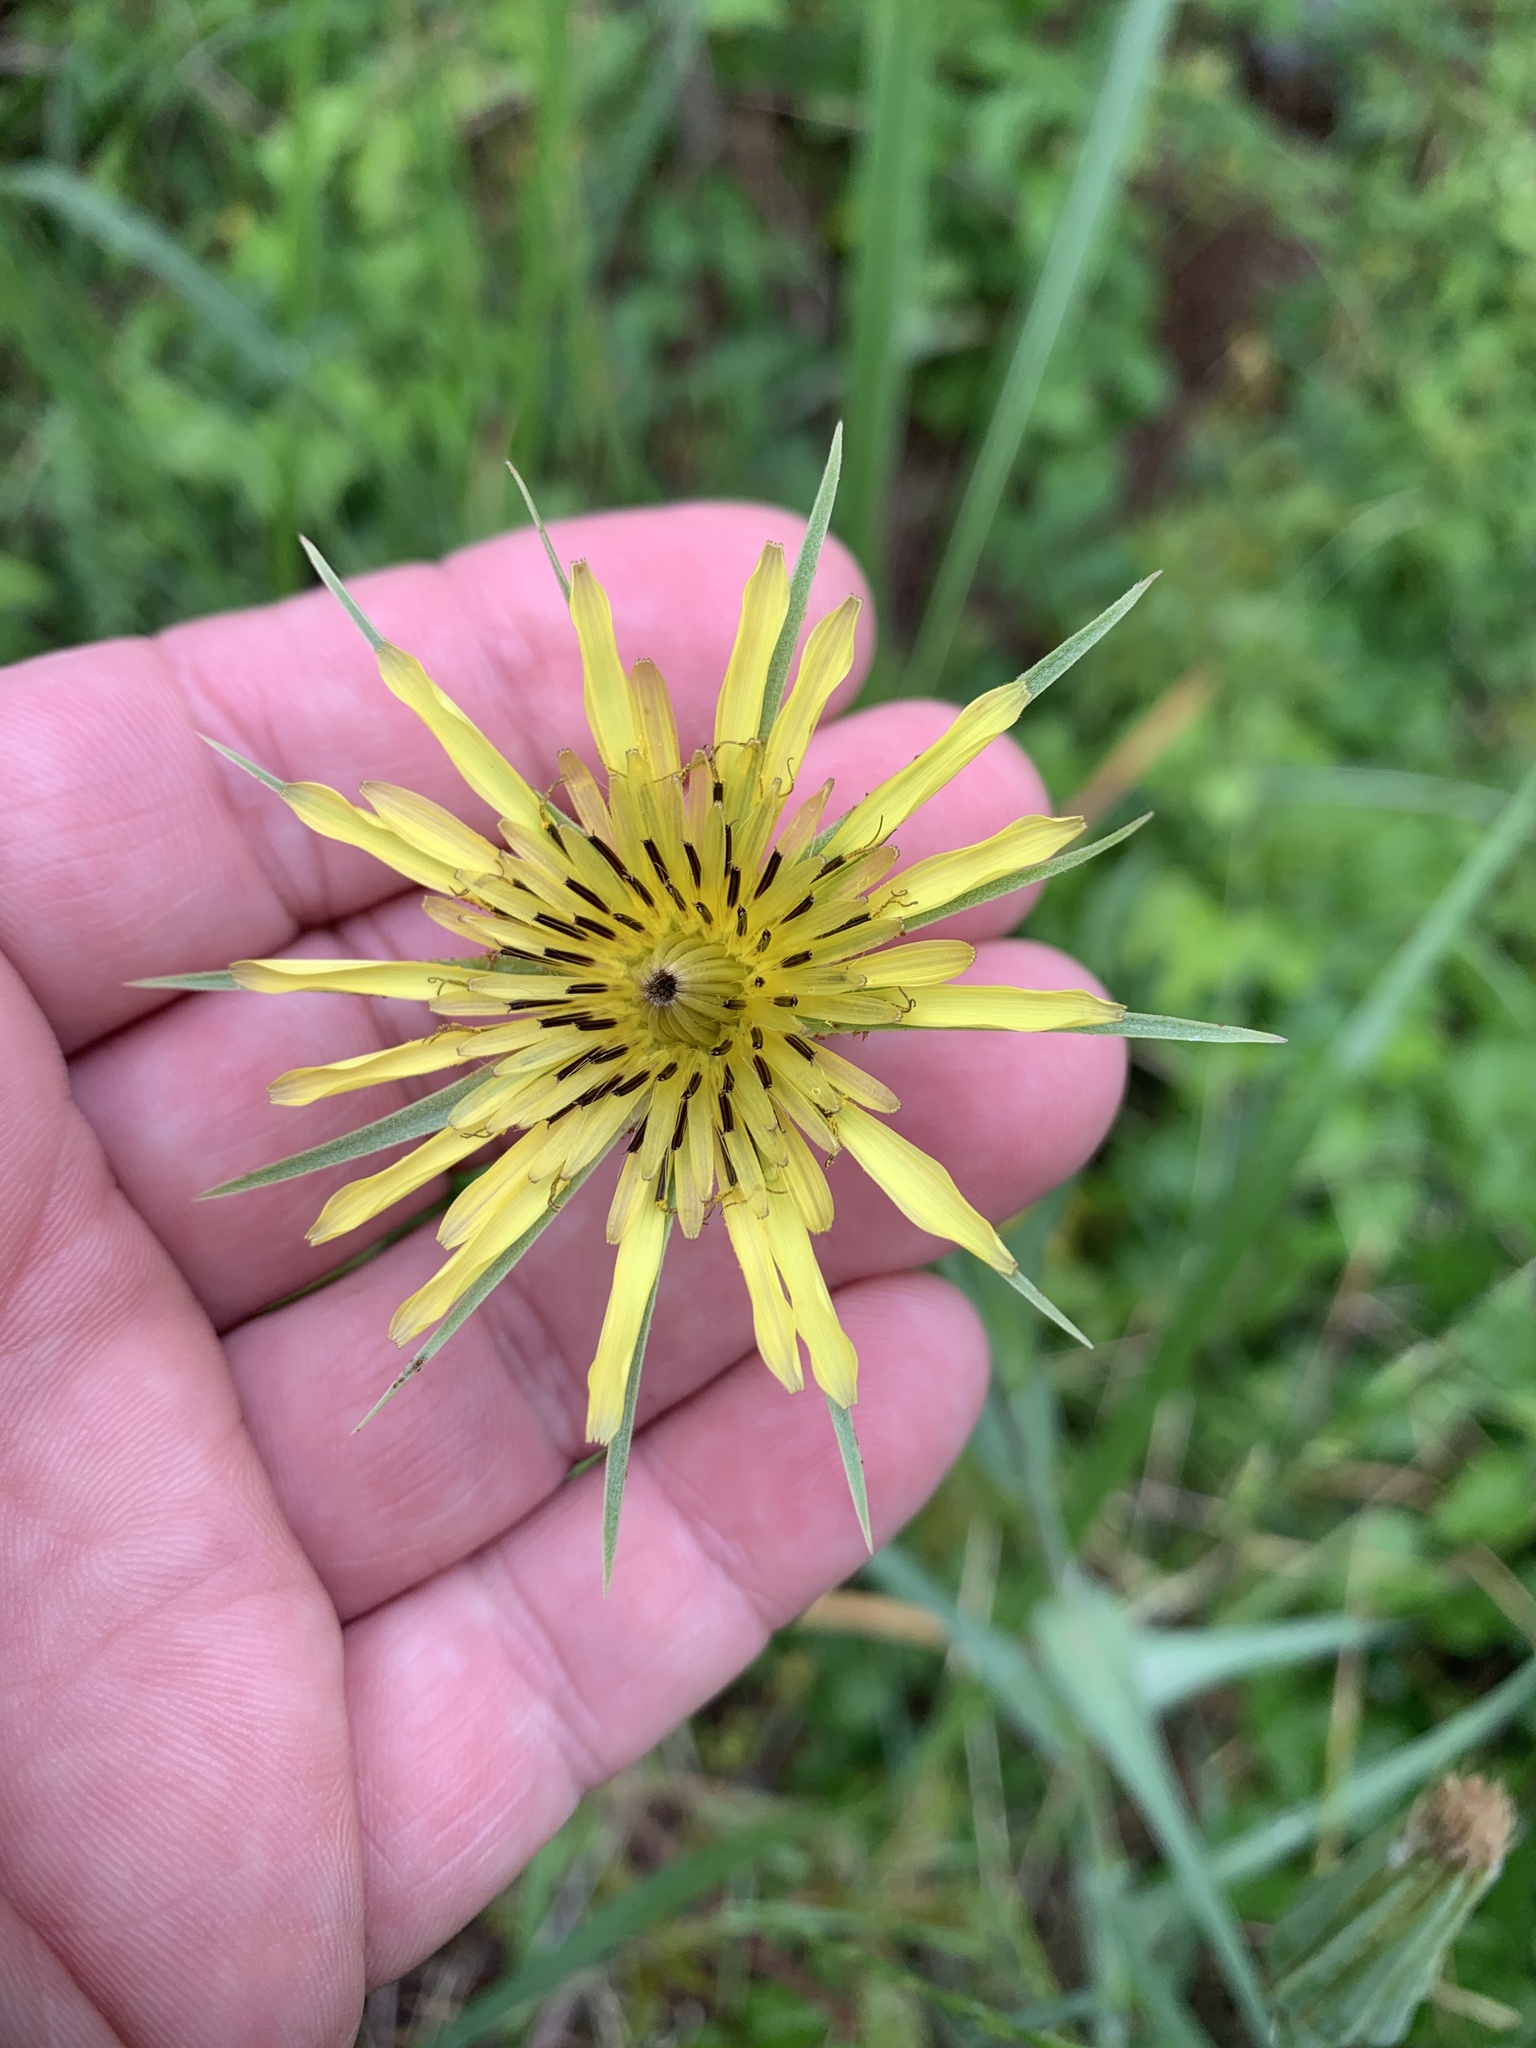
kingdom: Plantae
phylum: Tracheophyta
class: Magnoliopsida
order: Asterales
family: Asteraceae
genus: Tragopogon
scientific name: Tragopogon dubius
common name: Yellow salsify
